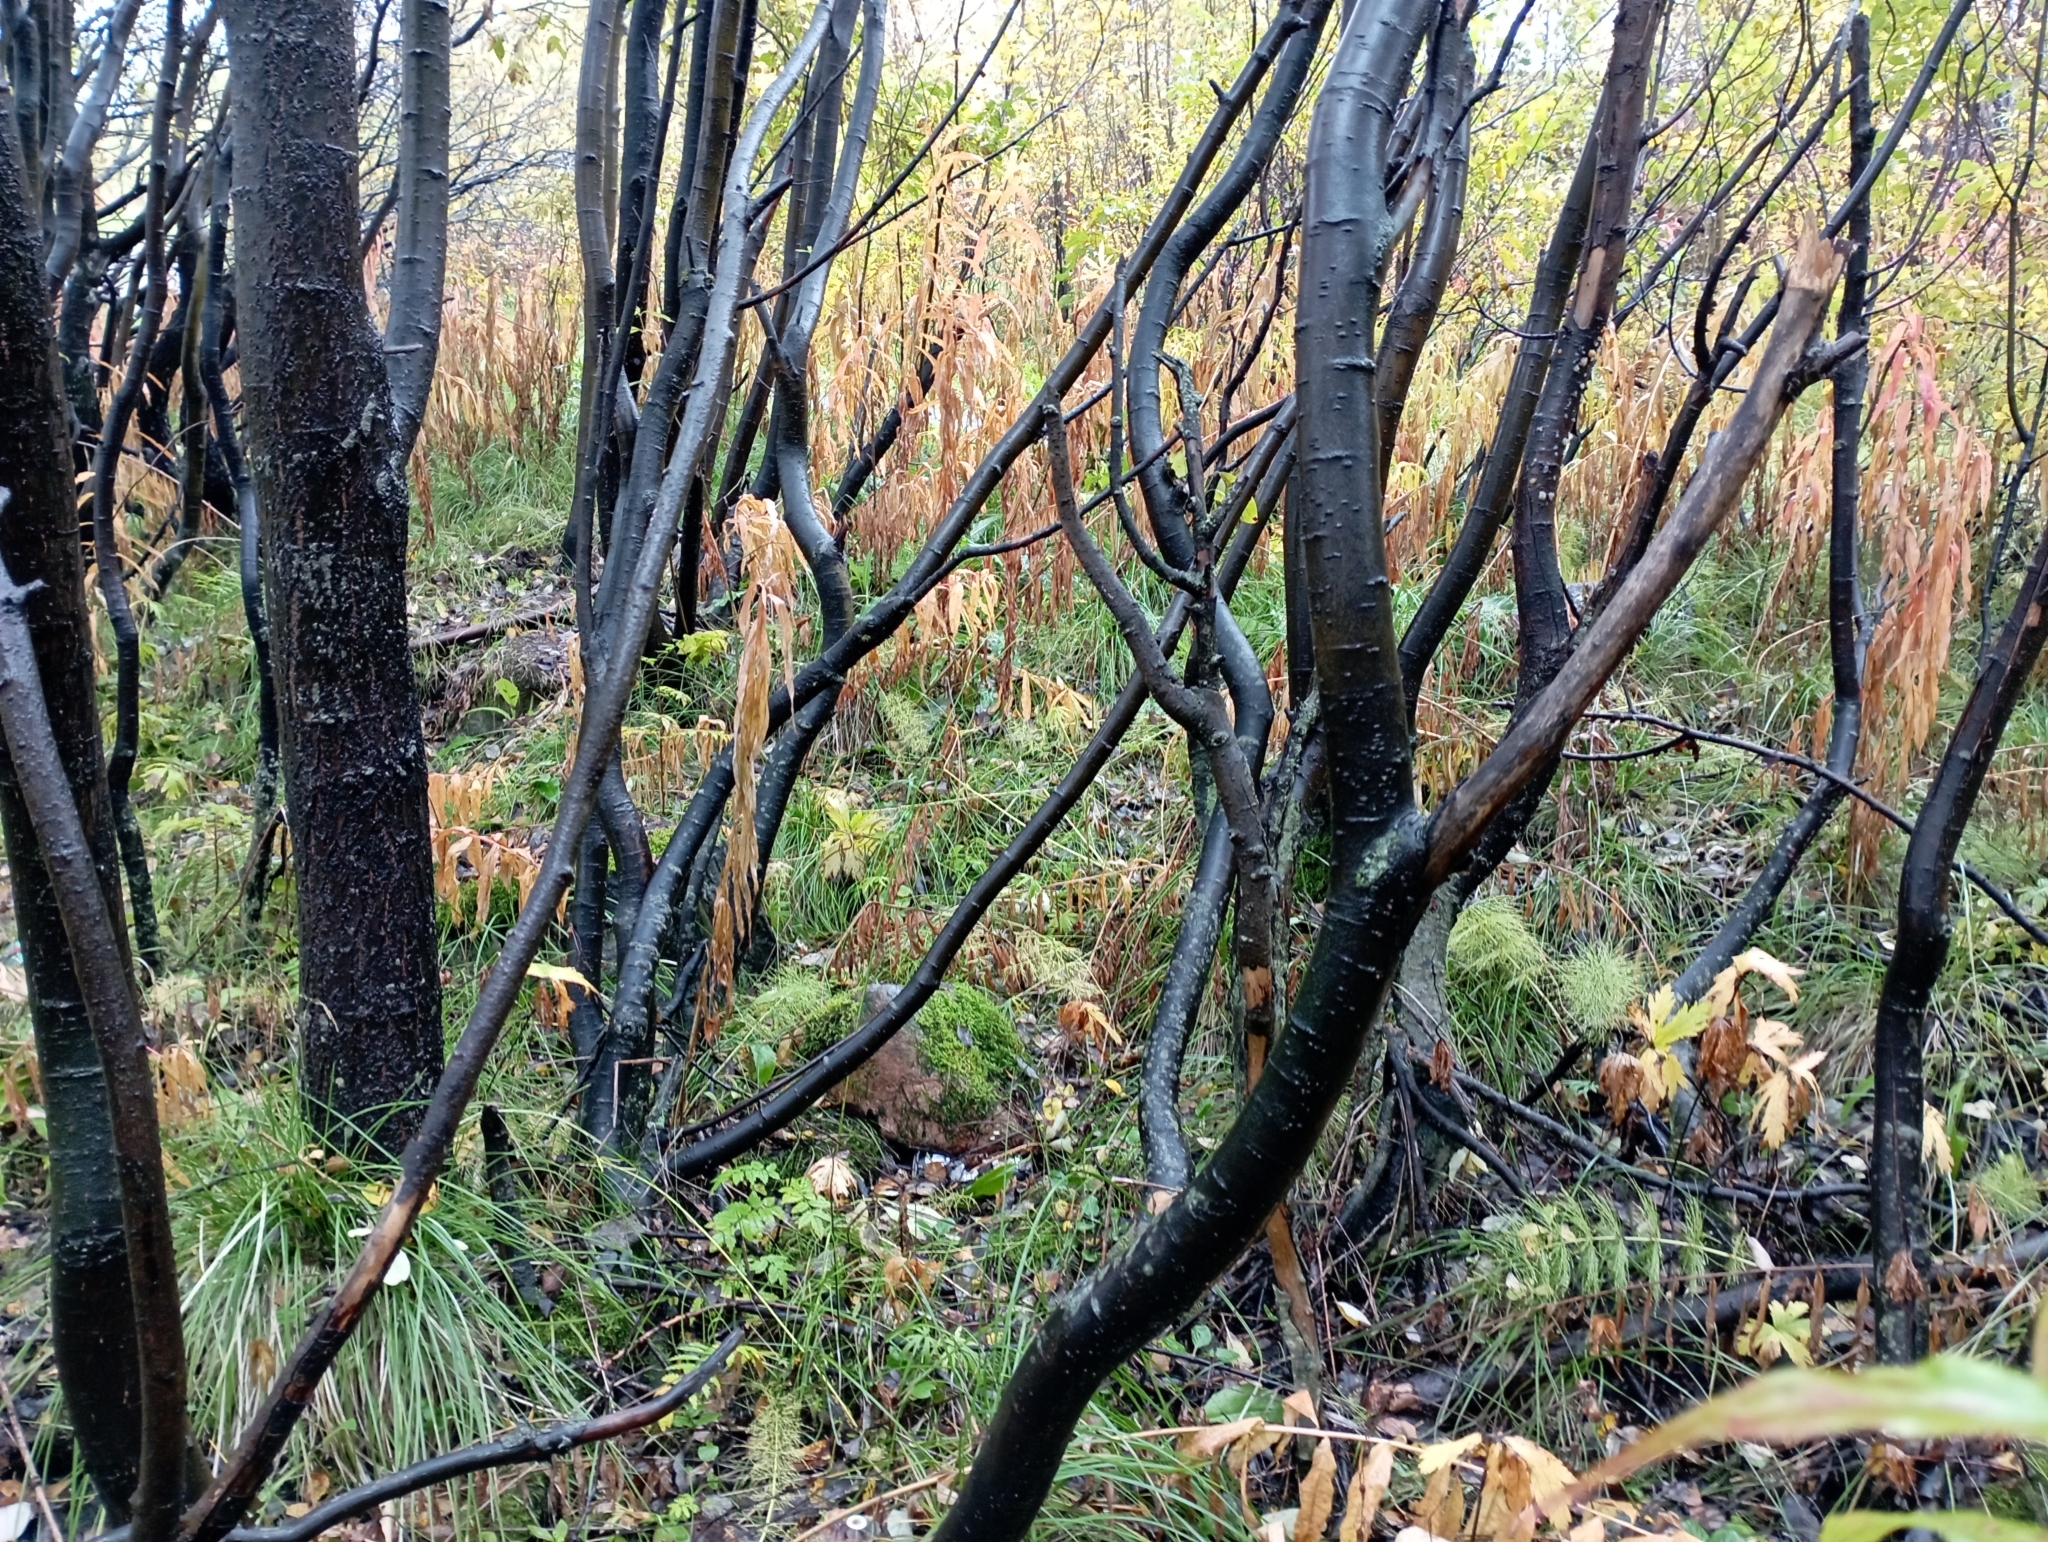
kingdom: Plantae
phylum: Tracheophyta
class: Magnoliopsida
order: Malpighiales
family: Salicaceae
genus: Salix
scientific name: Salix caprea
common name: Goat willow
